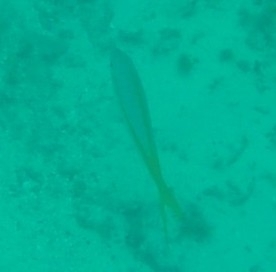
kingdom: Animalia
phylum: Chordata
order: Perciformes
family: Lutjanidae
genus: Ocyurus
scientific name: Ocyurus chrysurus
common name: Yellowtail snapper
